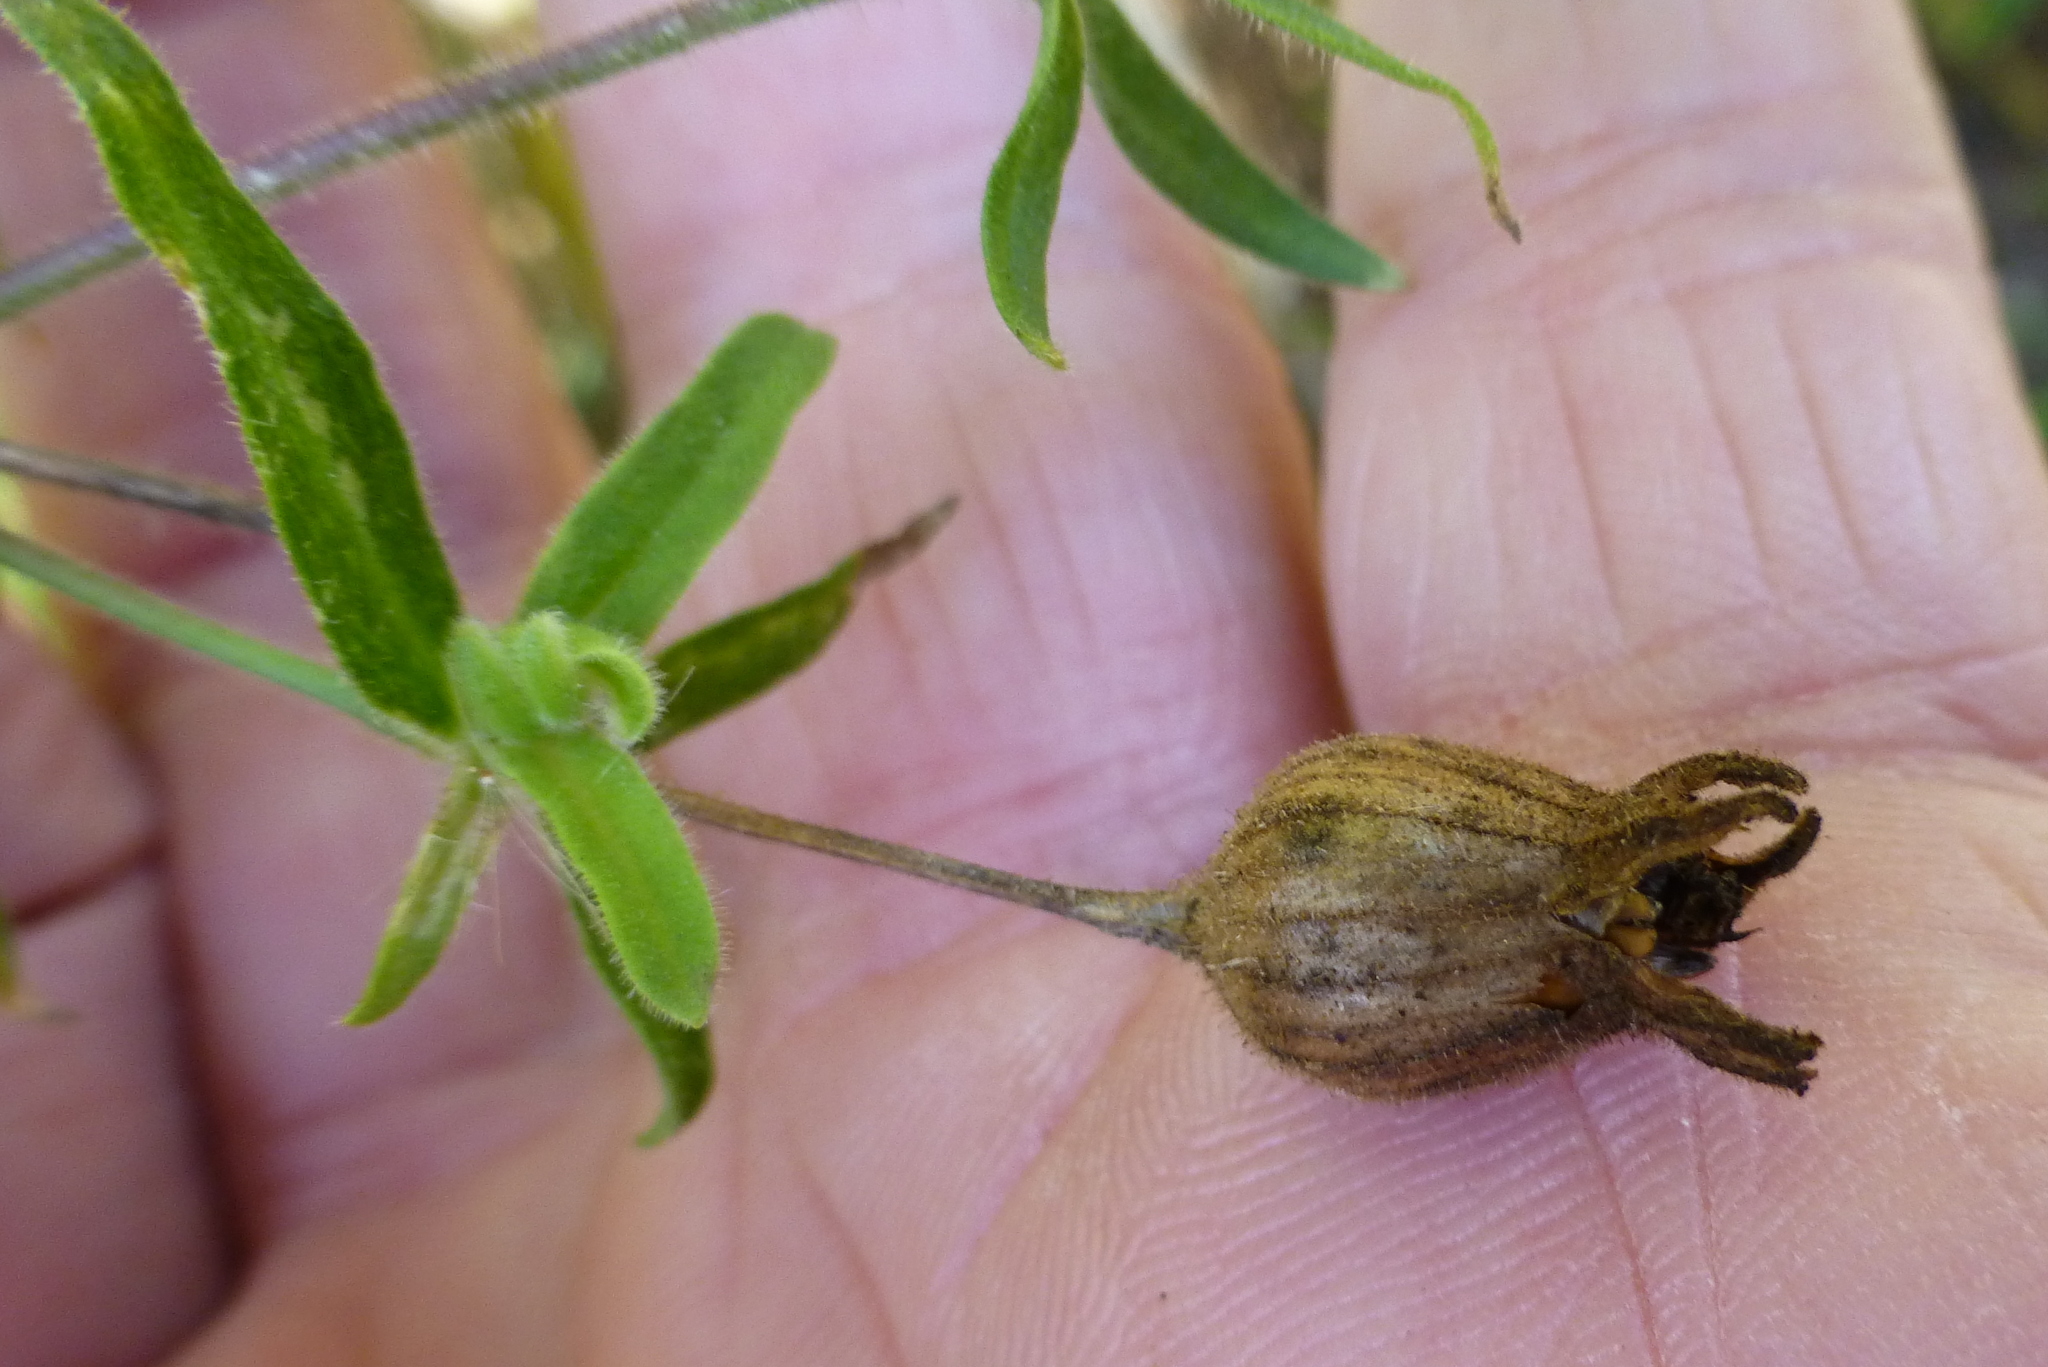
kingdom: Plantae
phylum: Tracheophyta
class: Magnoliopsida
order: Caryophyllales
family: Caryophyllaceae
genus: Silene
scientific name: Silene latifolia
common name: White campion
